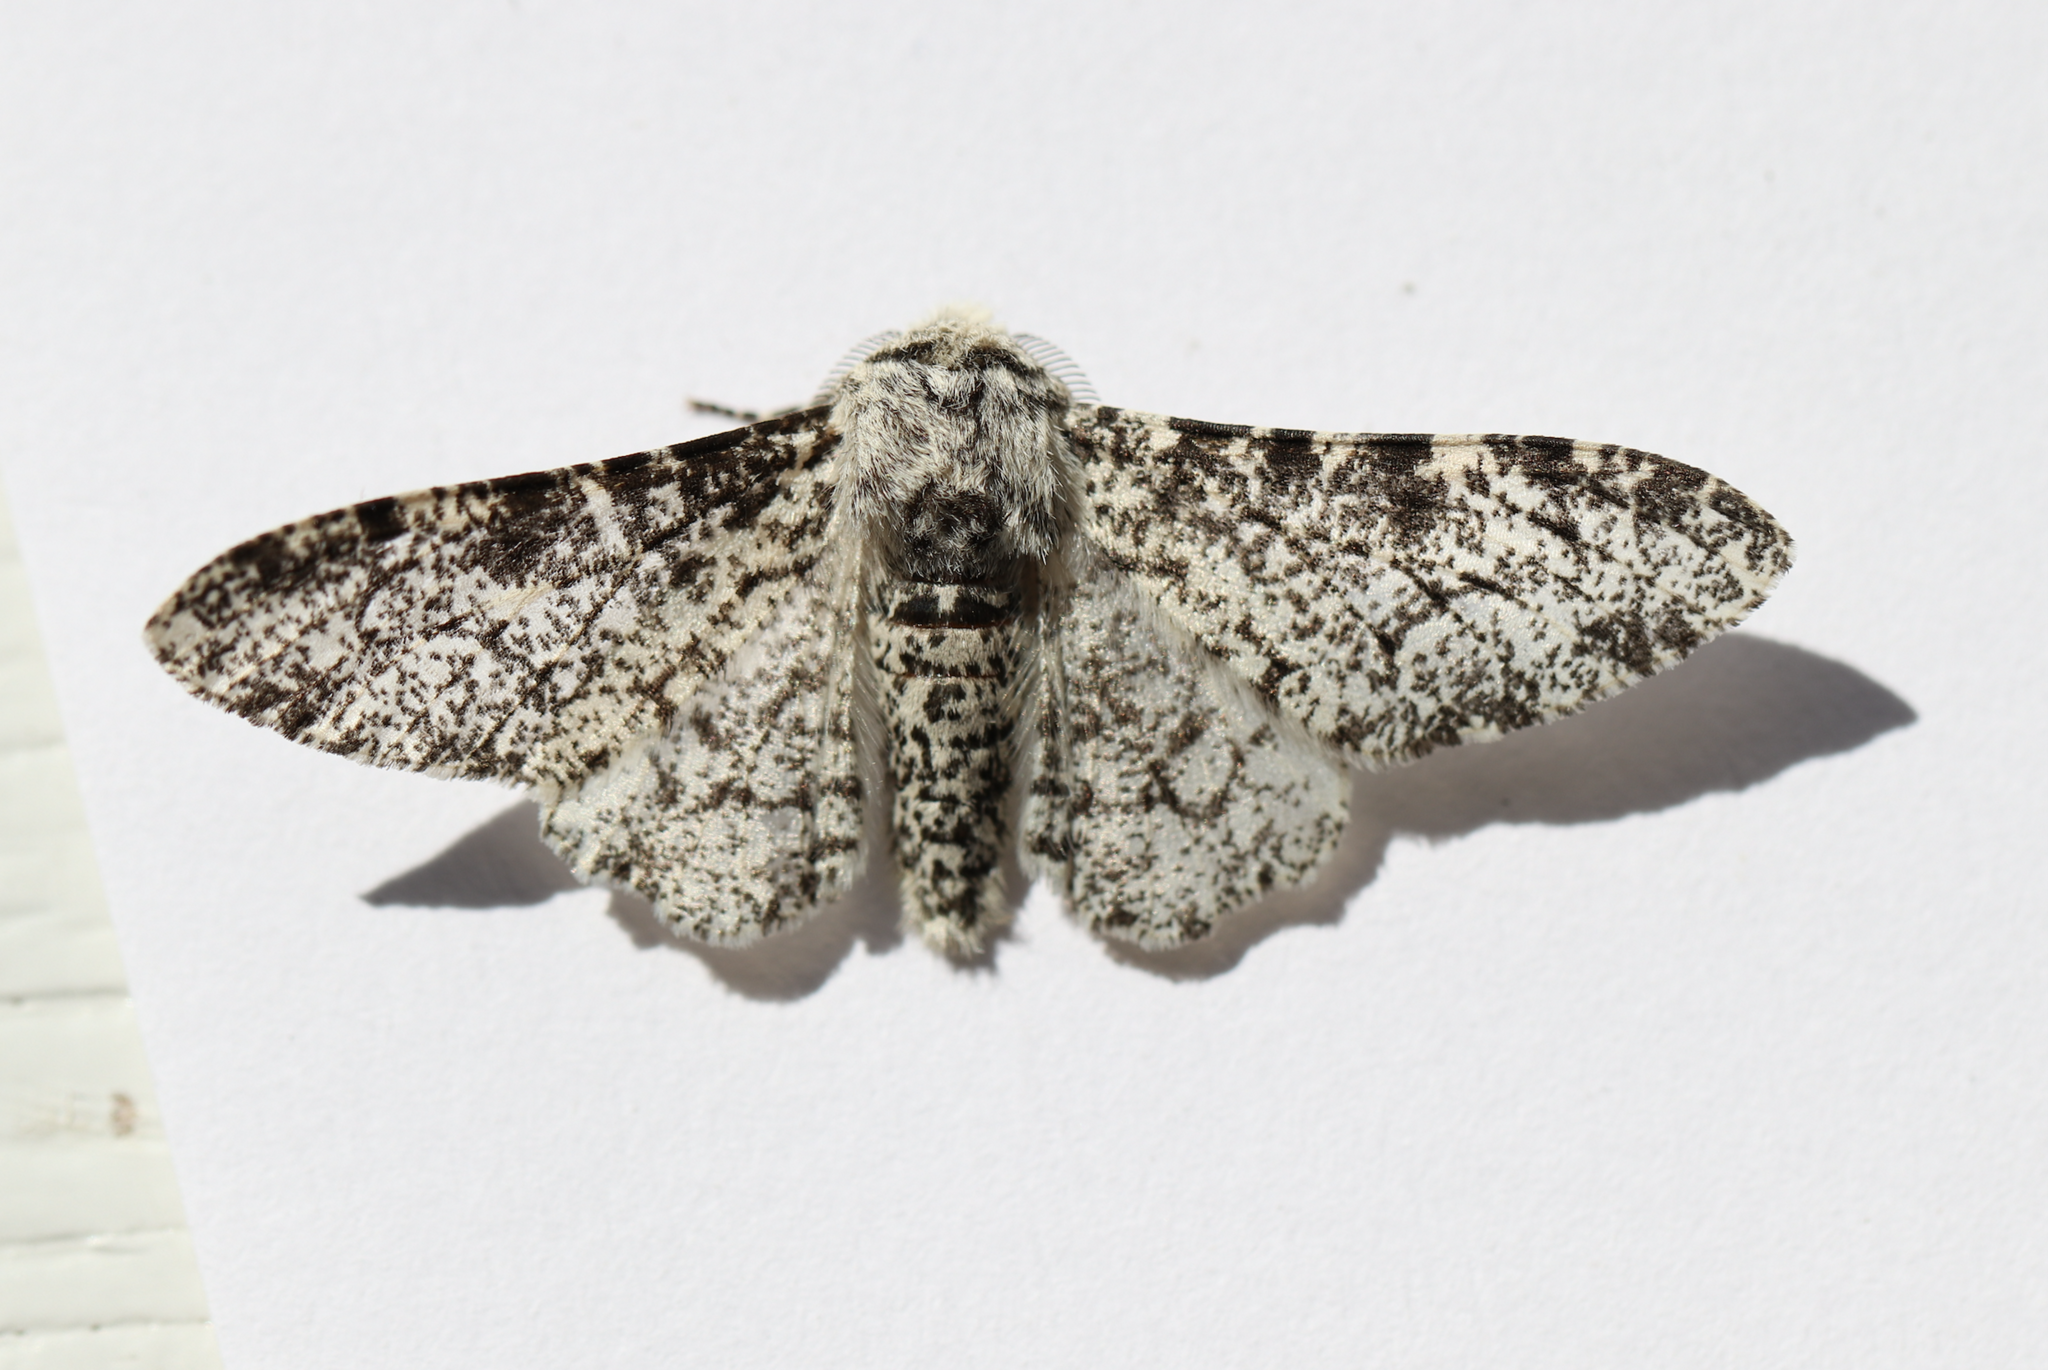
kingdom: Animalia
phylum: Arthropoda
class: Insecta
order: Lepidoptera
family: Geometridae
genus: Biston
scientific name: Biston betularia
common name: Peppered moth
